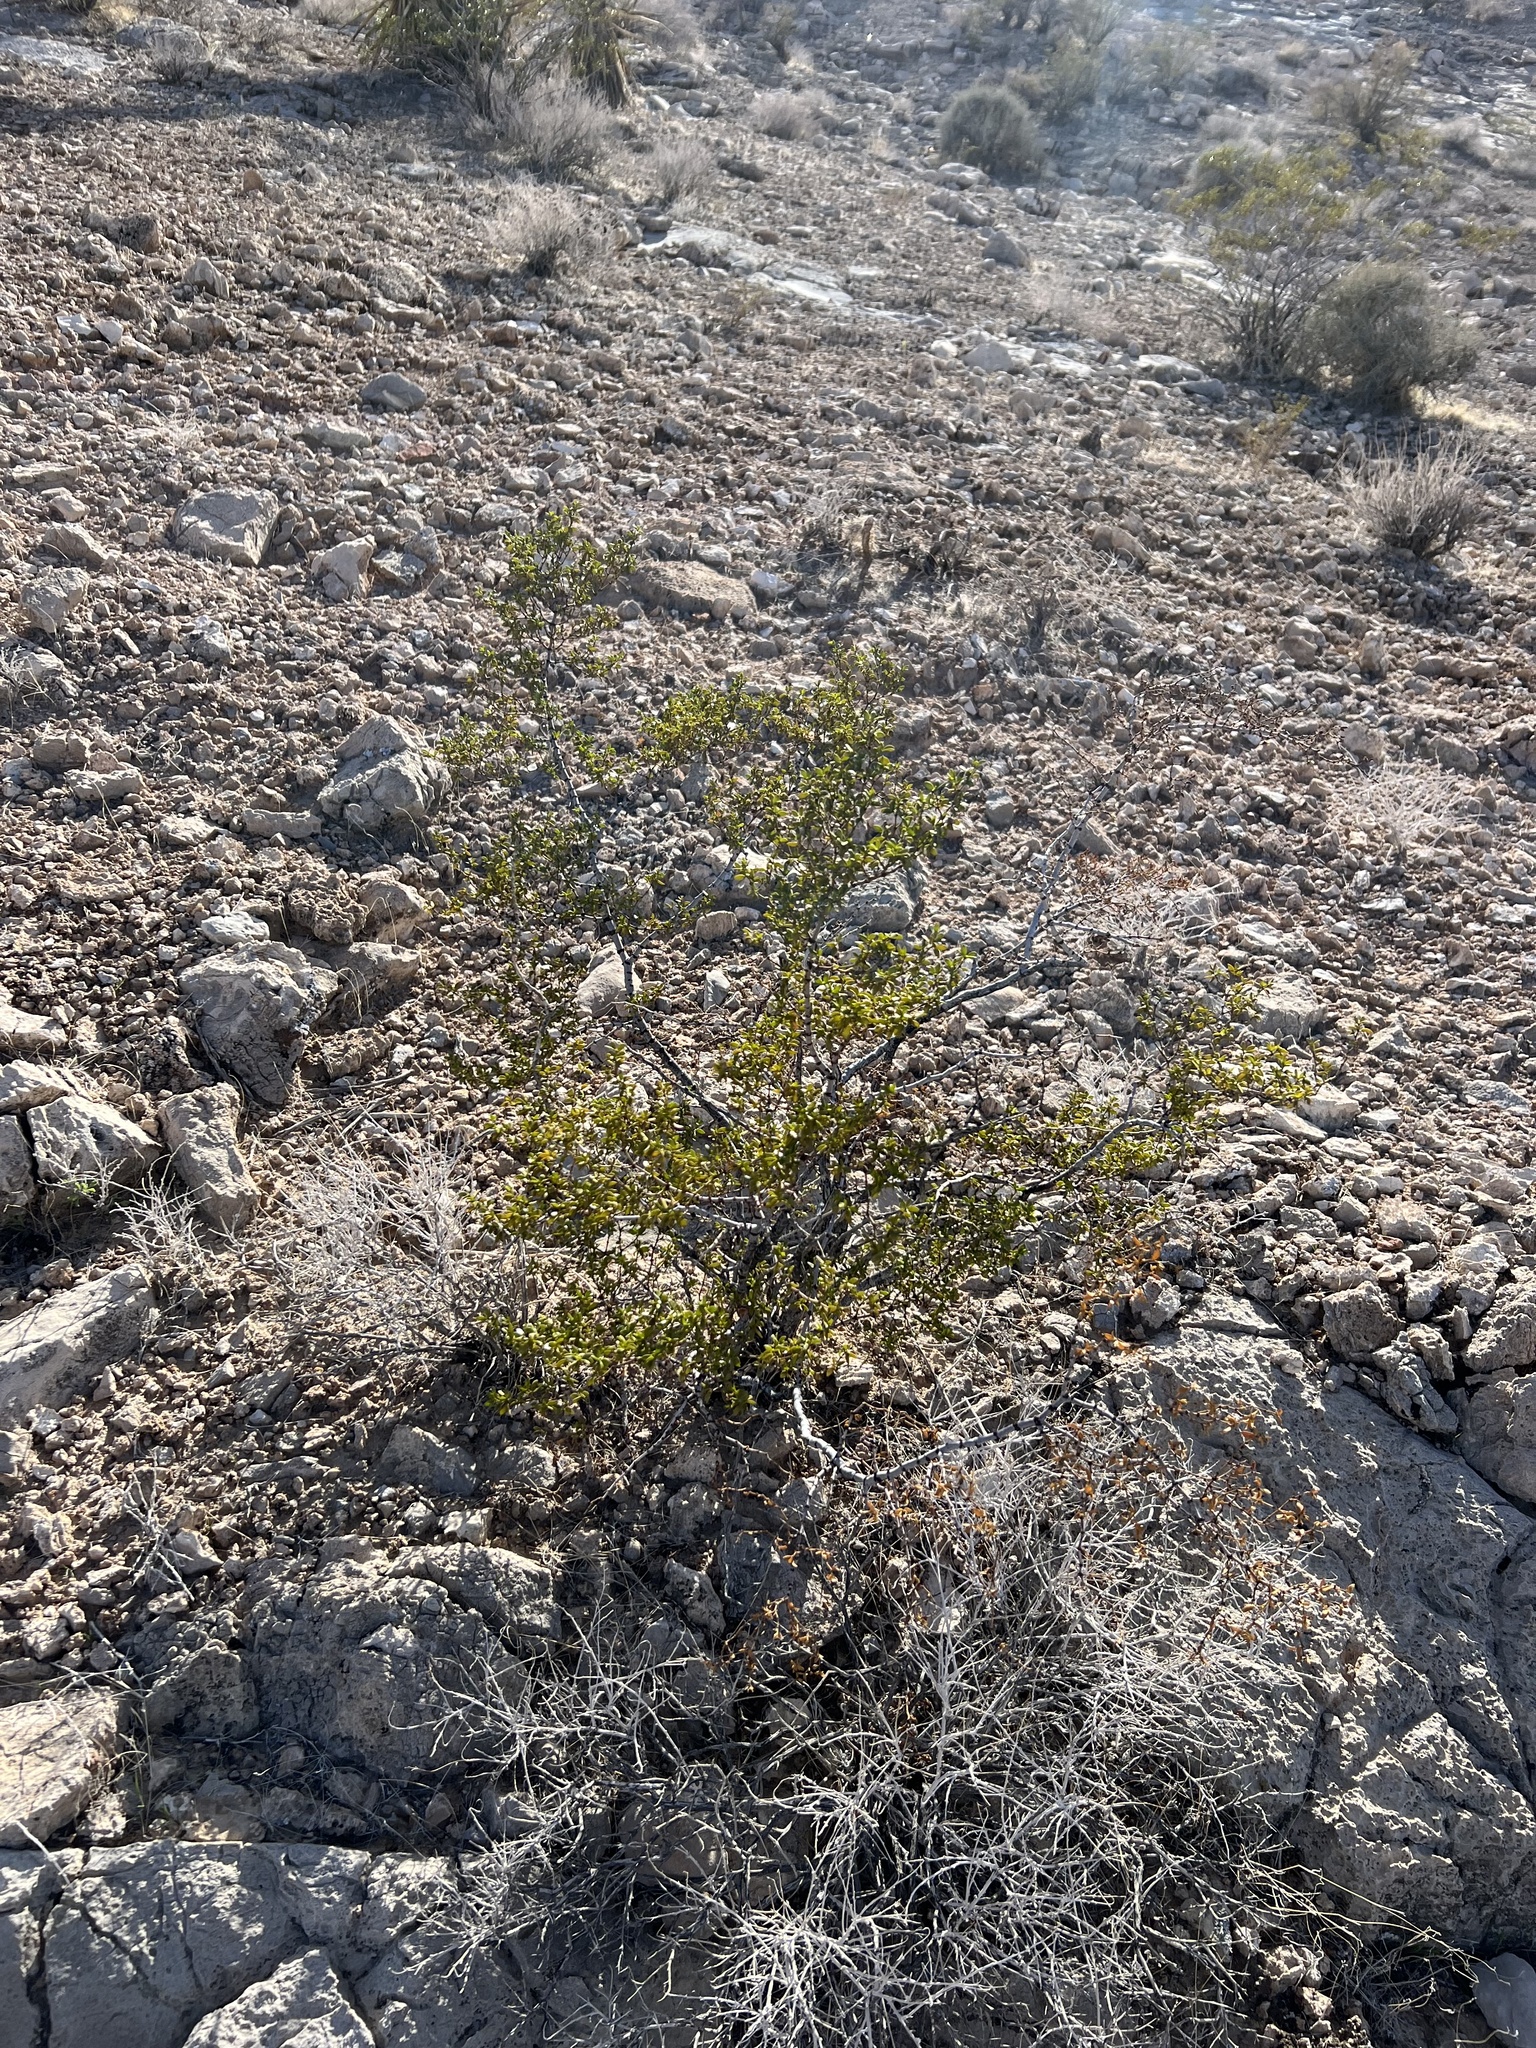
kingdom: Plantae
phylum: Tracheophyta
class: Magnoliopsida
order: Zygophyllales
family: Zygophyllaceae
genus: Larrea
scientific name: Larrea tridentata
